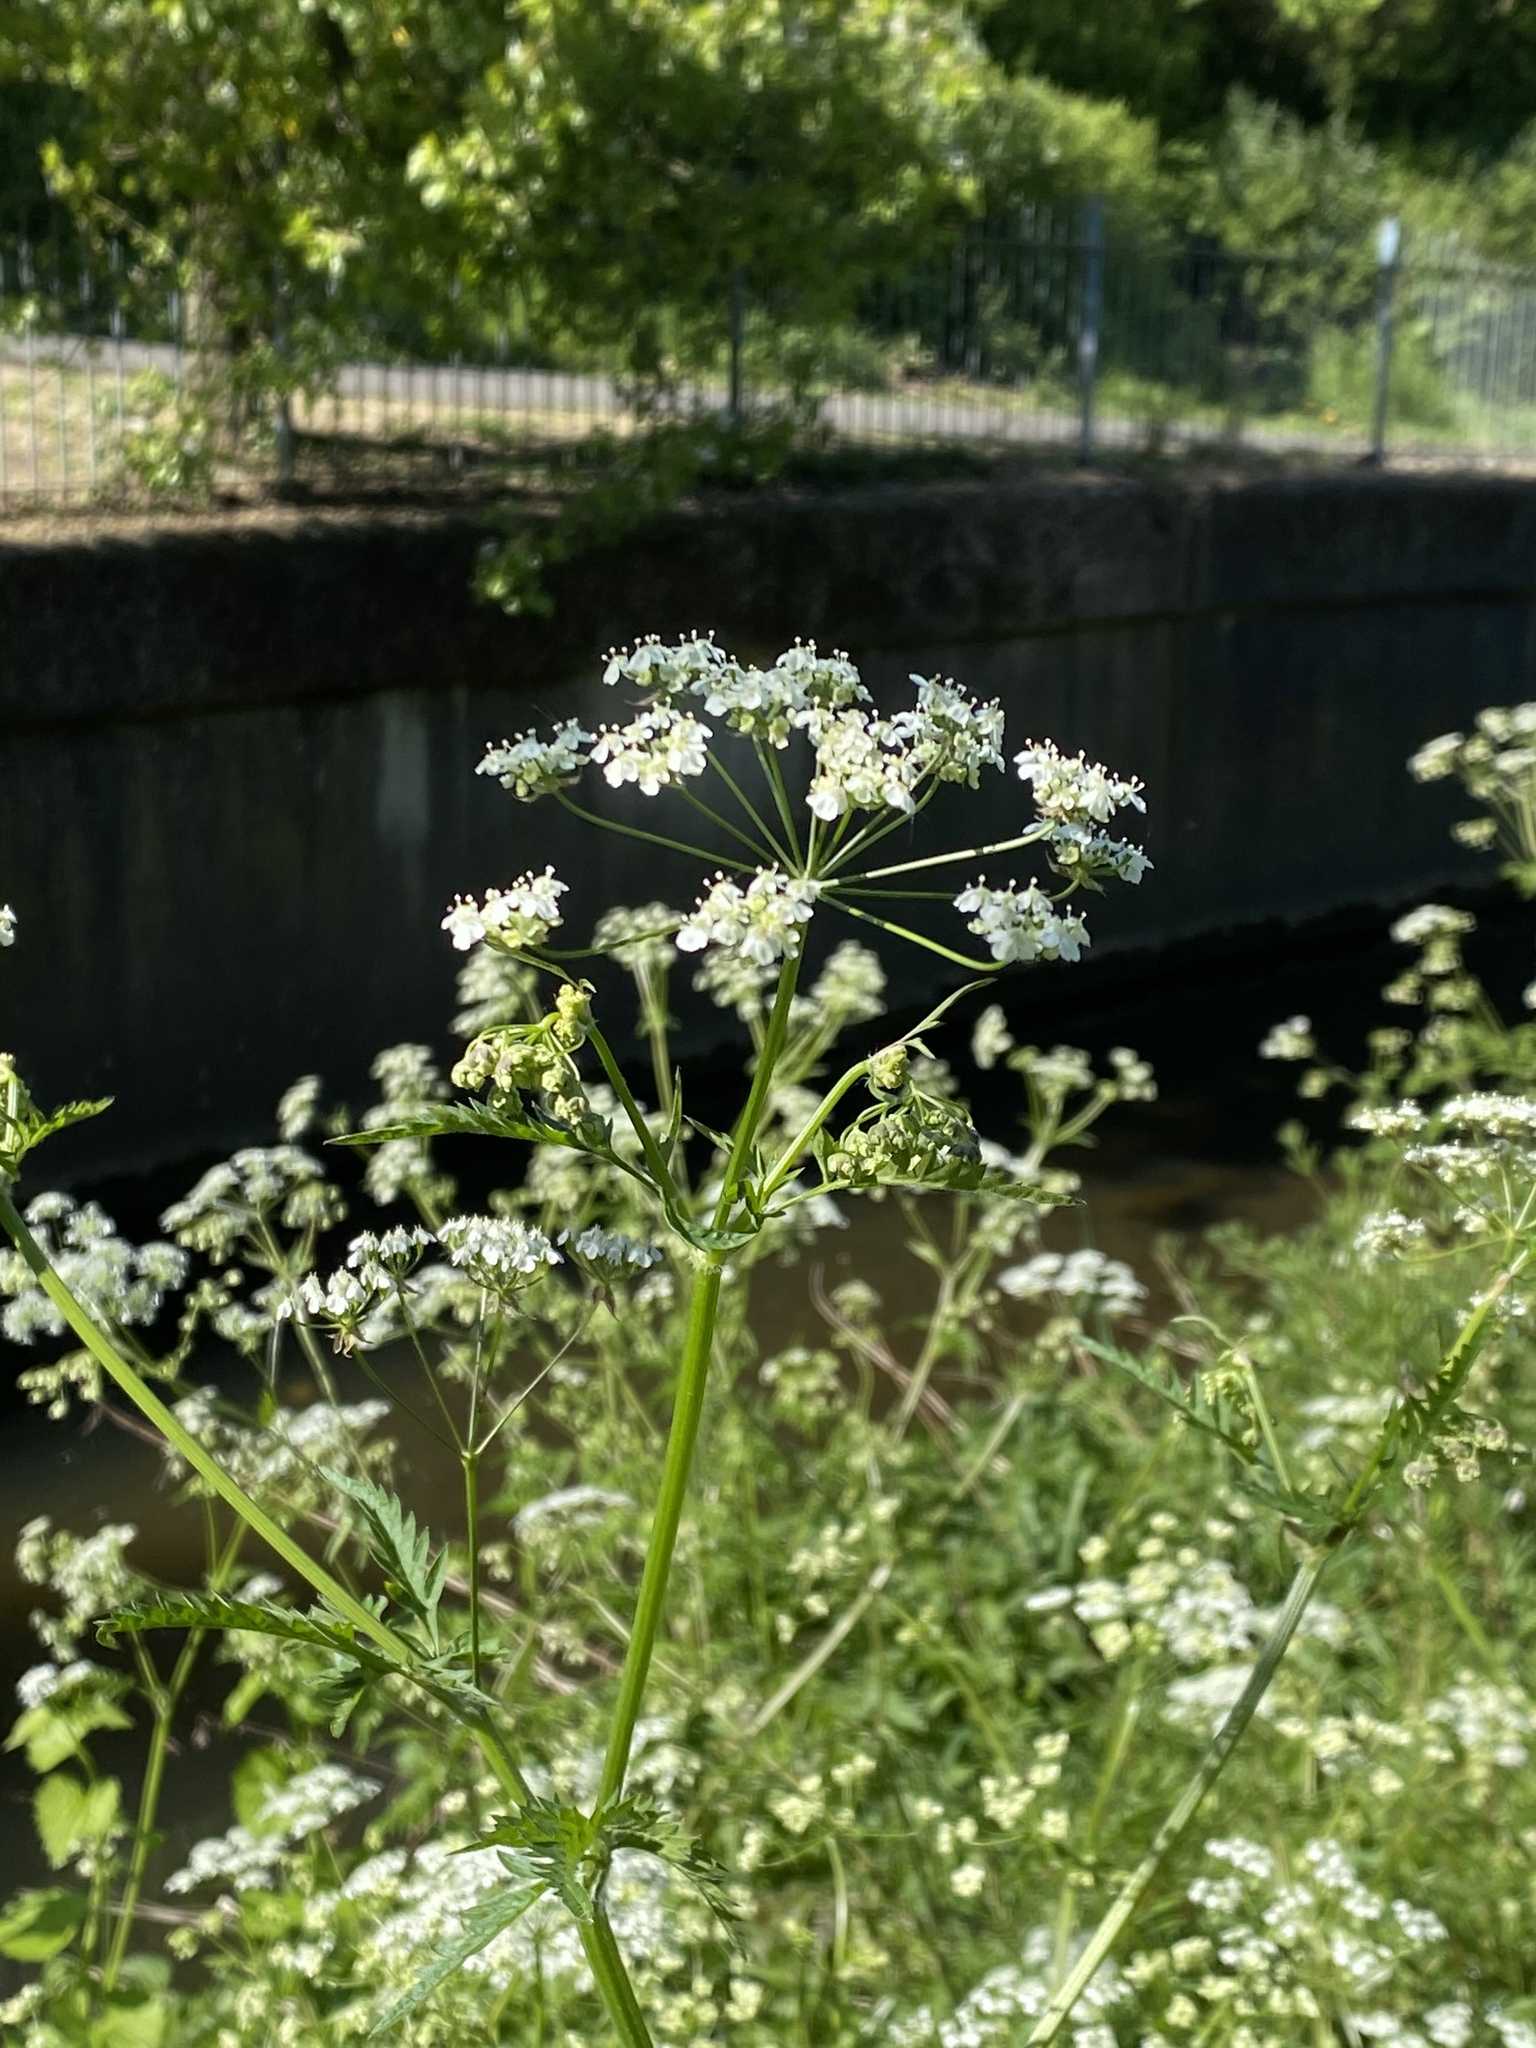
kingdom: Plantae
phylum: Tracheophyta
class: Magnoliopsida
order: Apiales
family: Apiaceae
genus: Anthriscus
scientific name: Anthriscus sylvestris
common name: Cow parsley
